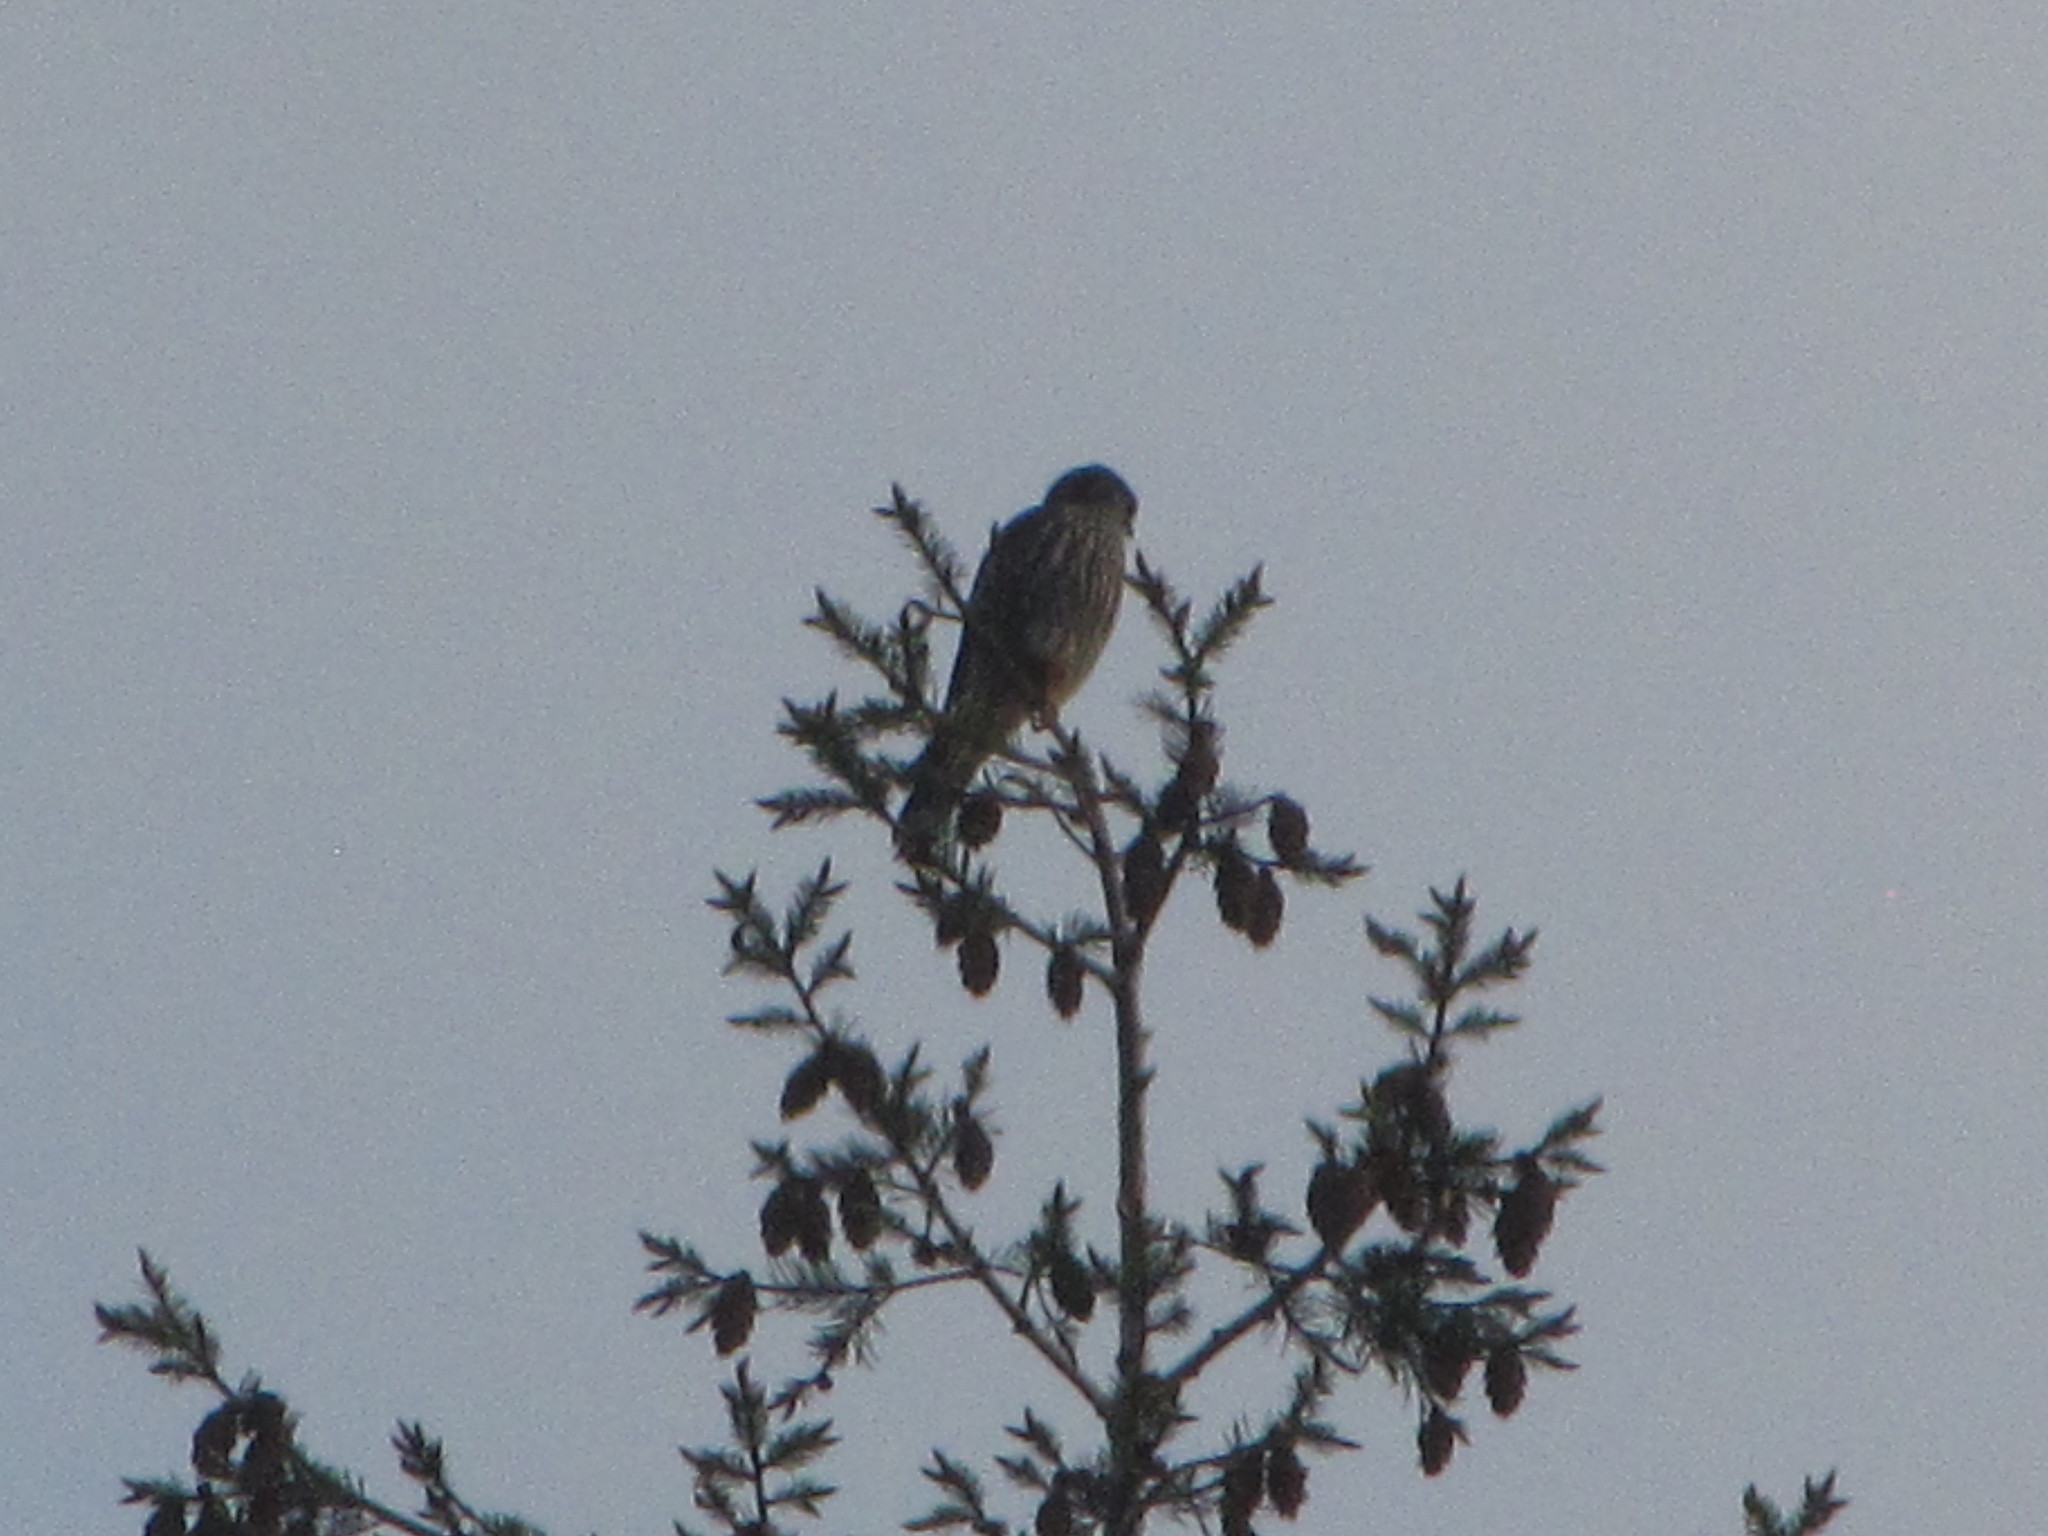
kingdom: Animalia
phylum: Chordata
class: Aves
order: Falconiformes
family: Falconidae
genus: Falco
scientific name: Falco columbarius
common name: Merlin
